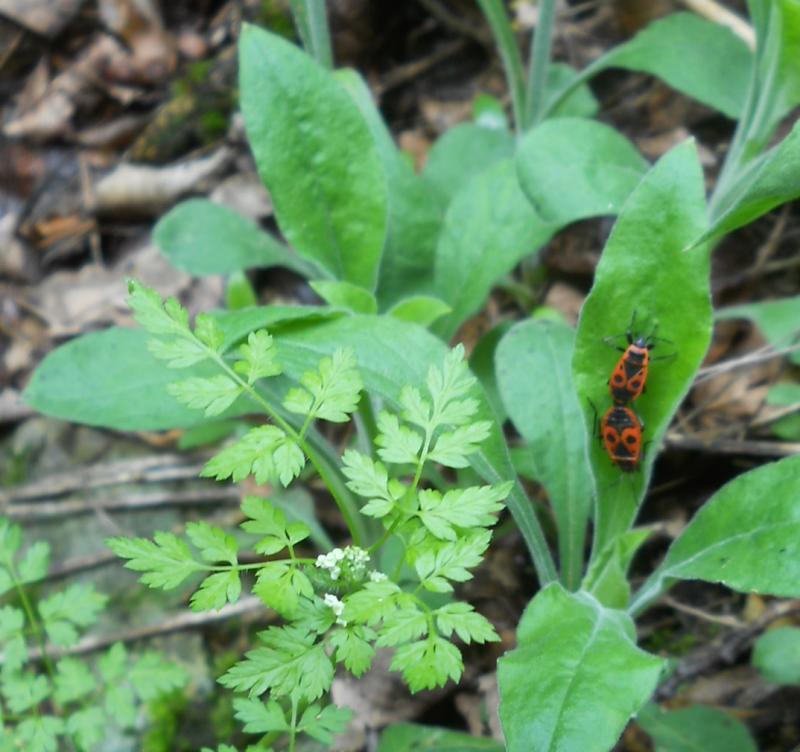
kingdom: Animalia
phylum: Arthropoda
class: Insecta
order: Hemiptera
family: Pyrrhocoridae
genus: Pyrrhocoris
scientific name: Pyrrhocoris apterus
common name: Firebug
